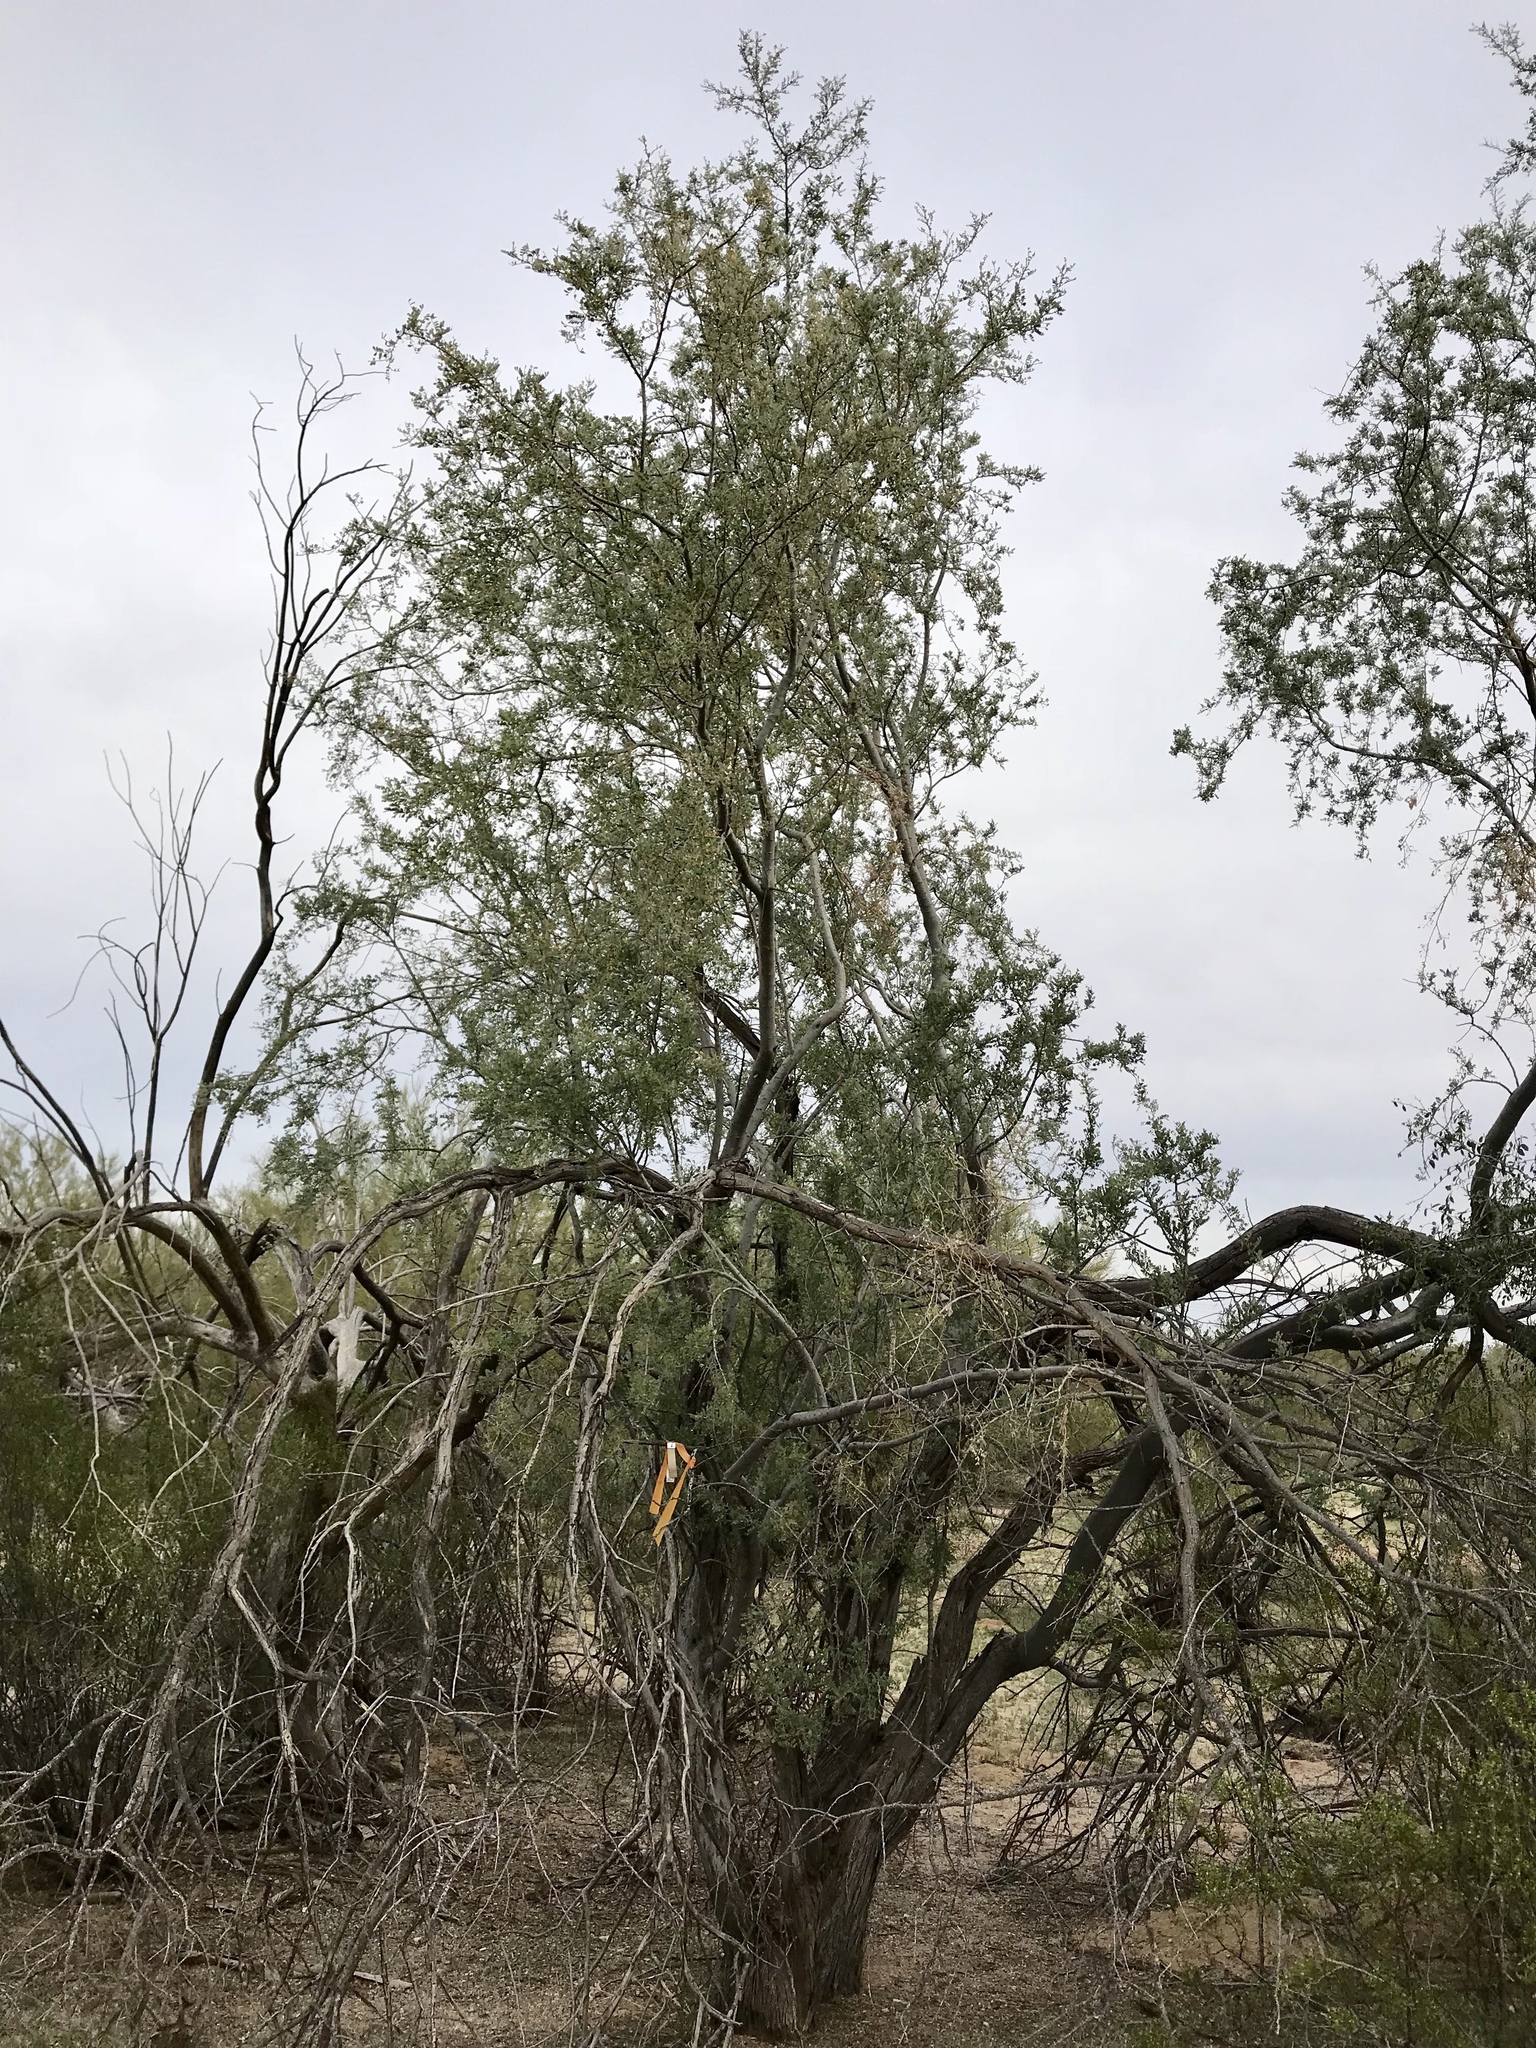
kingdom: Plantae
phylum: Tracheophyta
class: Magnoliopsida
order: Fabales
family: Fabaceae
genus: Olneya
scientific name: Olneya tesota
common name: Desert ironwood
